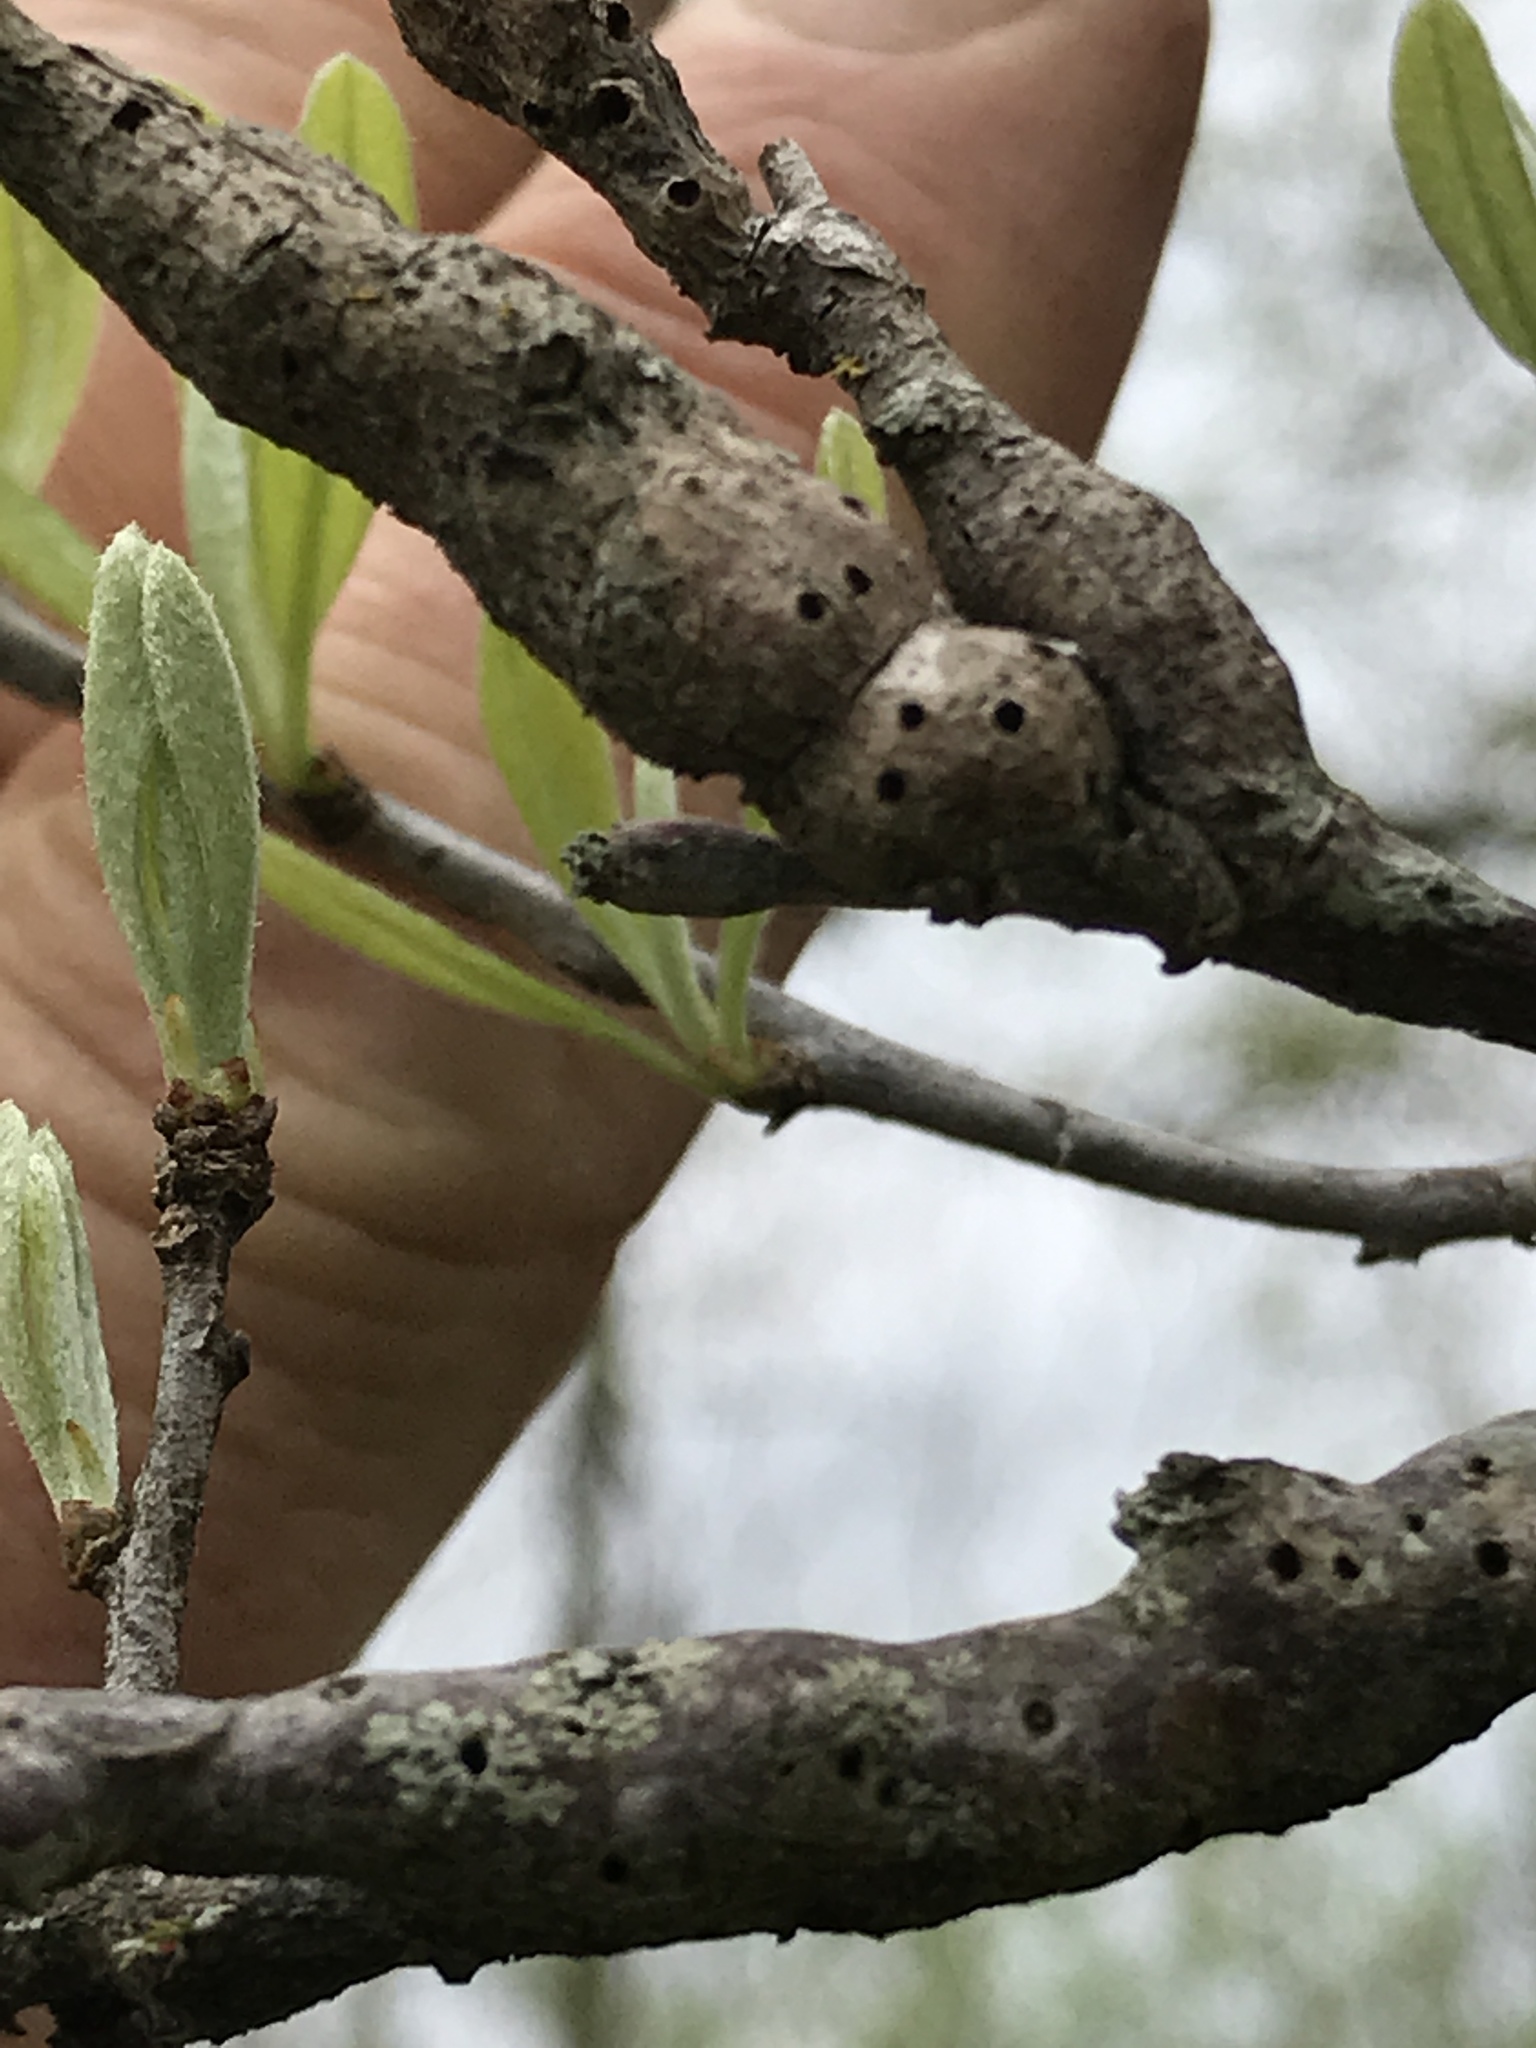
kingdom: Animalia
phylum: Arthropoda
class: Insecta
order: Diptera
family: Cecidomyiidae
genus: Bruggmanniella
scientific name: Bruggmanniella bumeliae
